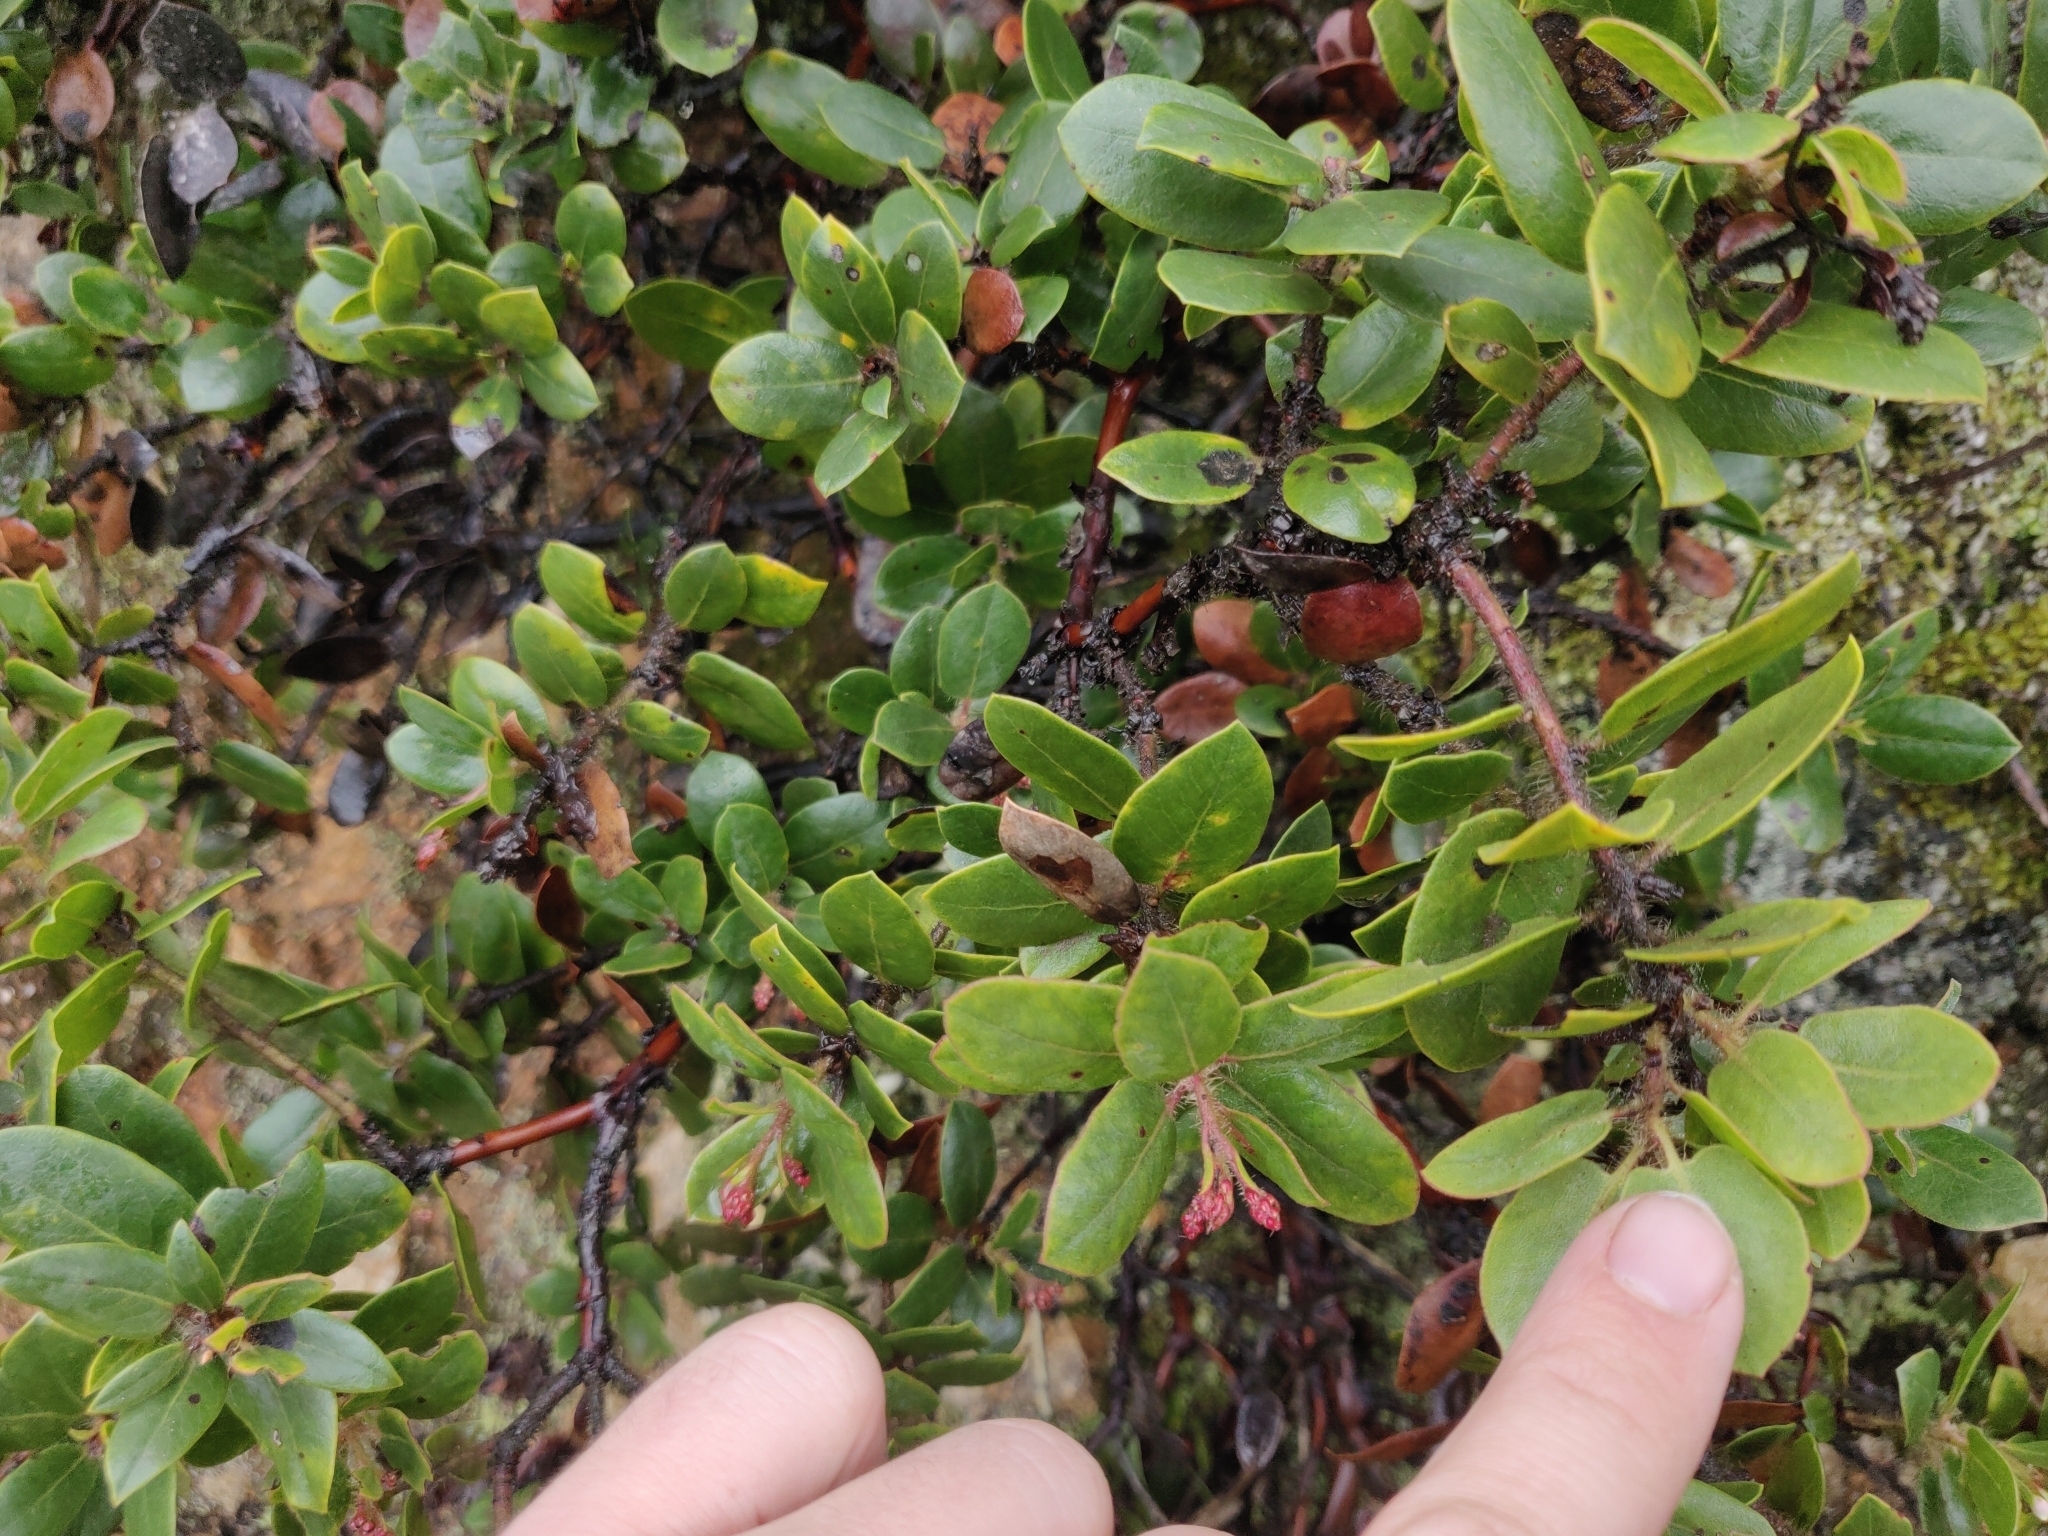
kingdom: Plantae
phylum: Tracheophyta
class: Magnoliopsida
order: Ericales
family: Ericaceae
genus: Arctostaphylos
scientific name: Arctostaphylos crustacea
